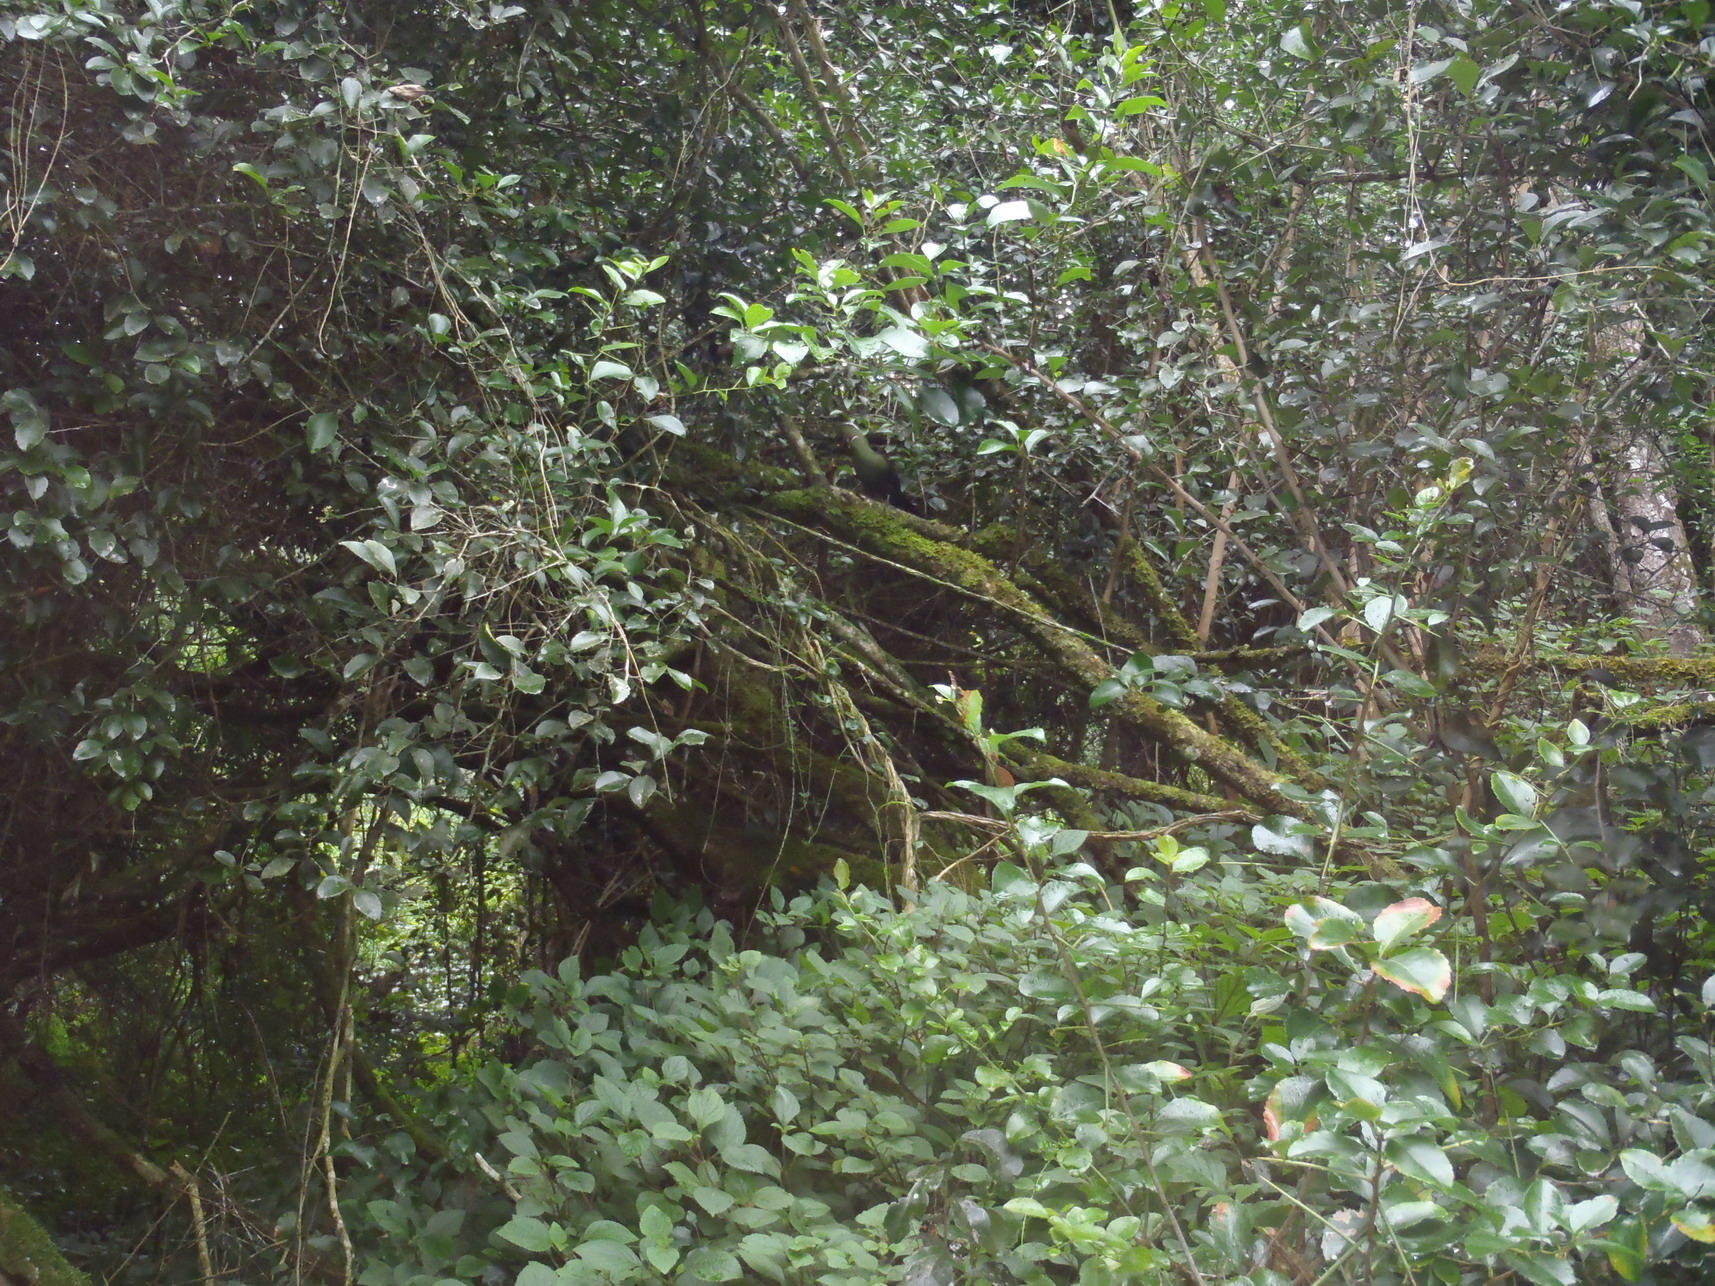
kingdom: Animalia
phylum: Chordata
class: Aves
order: Musophagiformes
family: Musophagidae
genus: Tauraco
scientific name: Tauraco corythaix
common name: Knysna turaco
